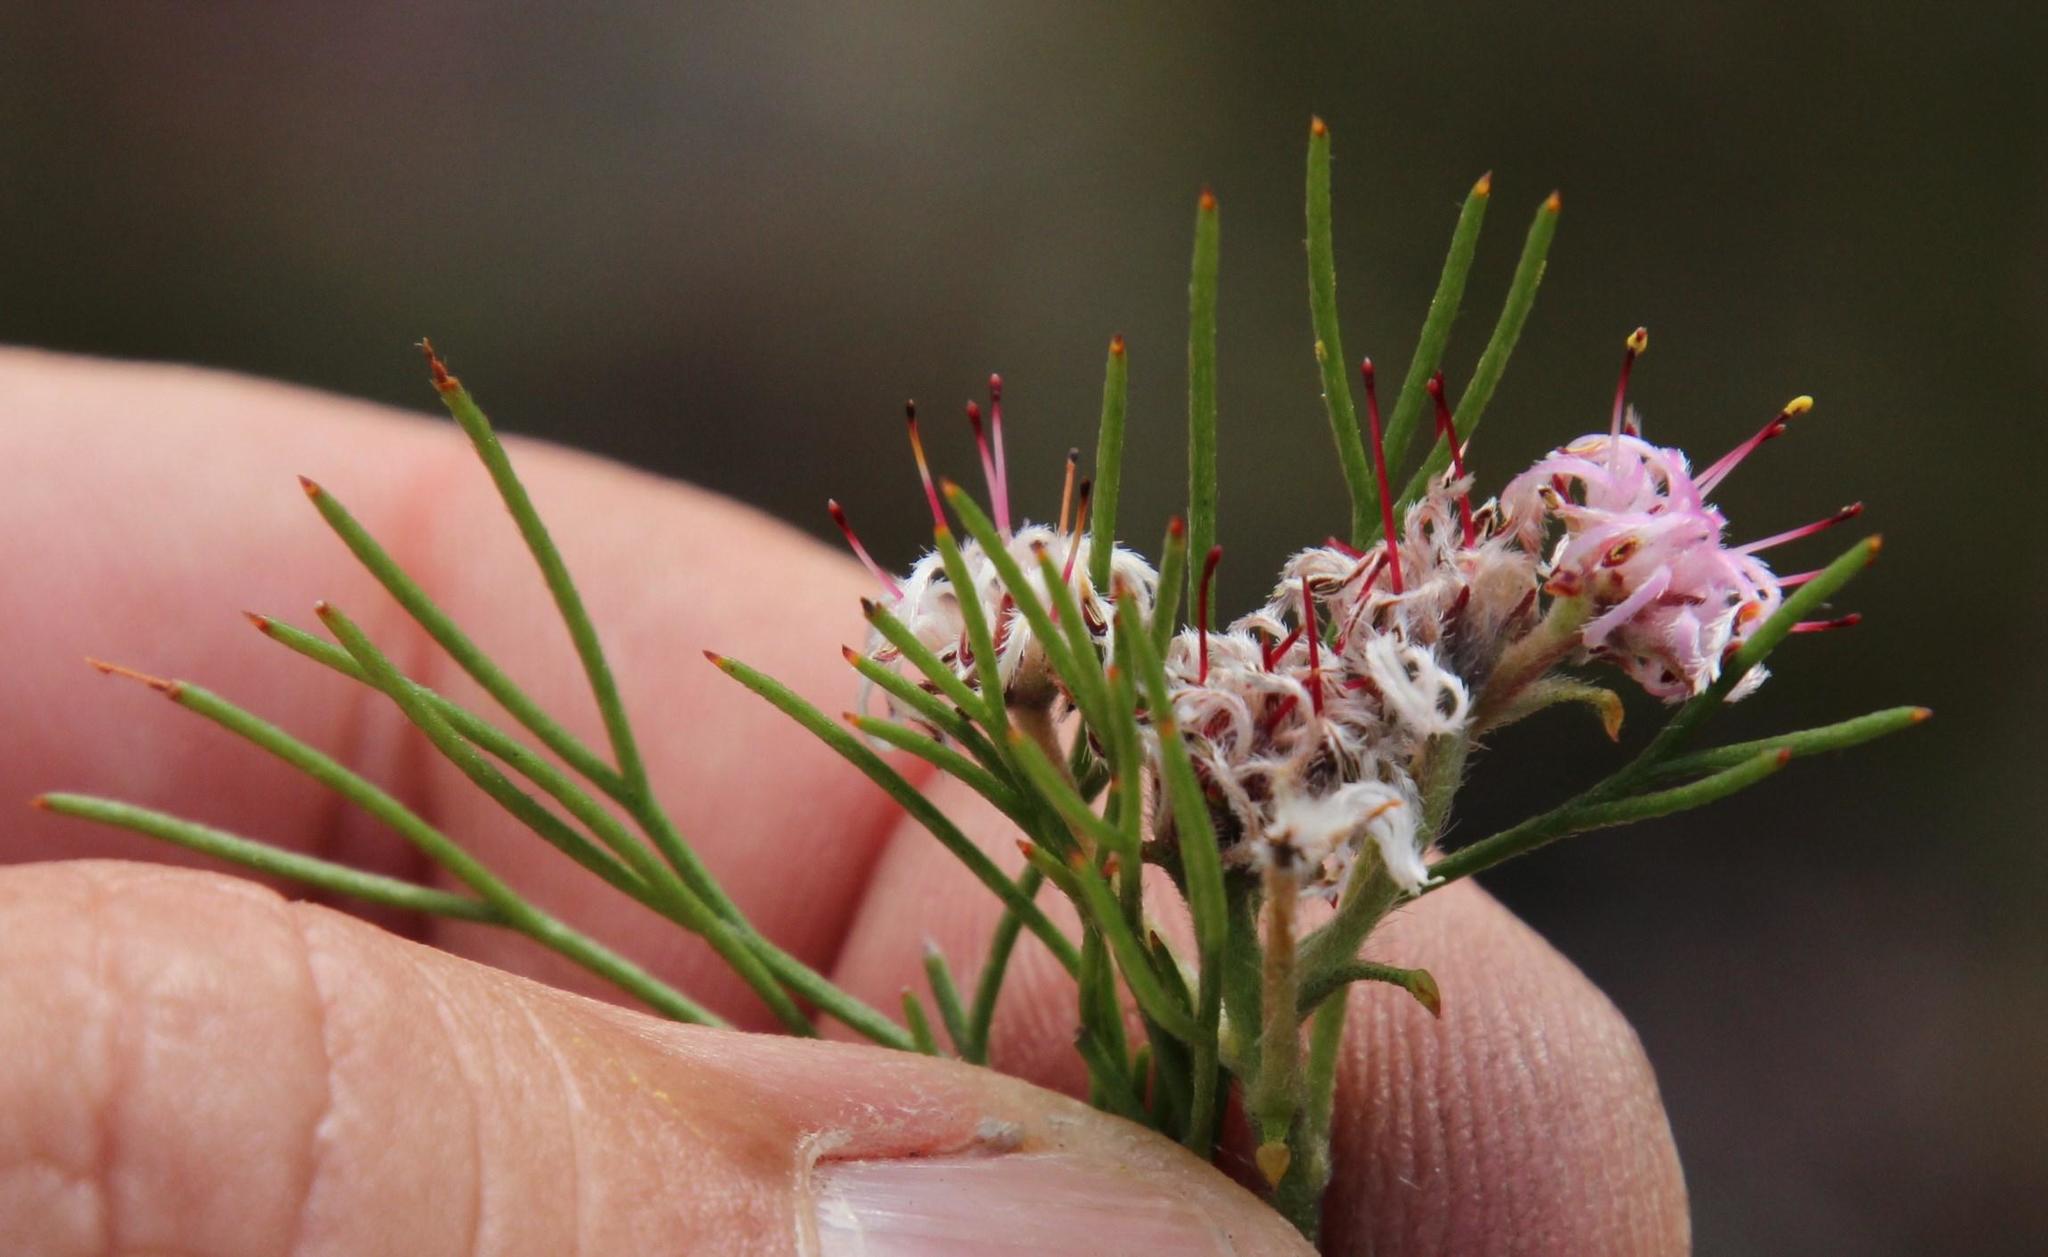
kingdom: Plantae
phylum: Tracheophyta
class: Magnoliopsida
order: Proteales
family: Proteaceae
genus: Serruria
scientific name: Serruria fasciflora
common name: Common pin spiderhead
